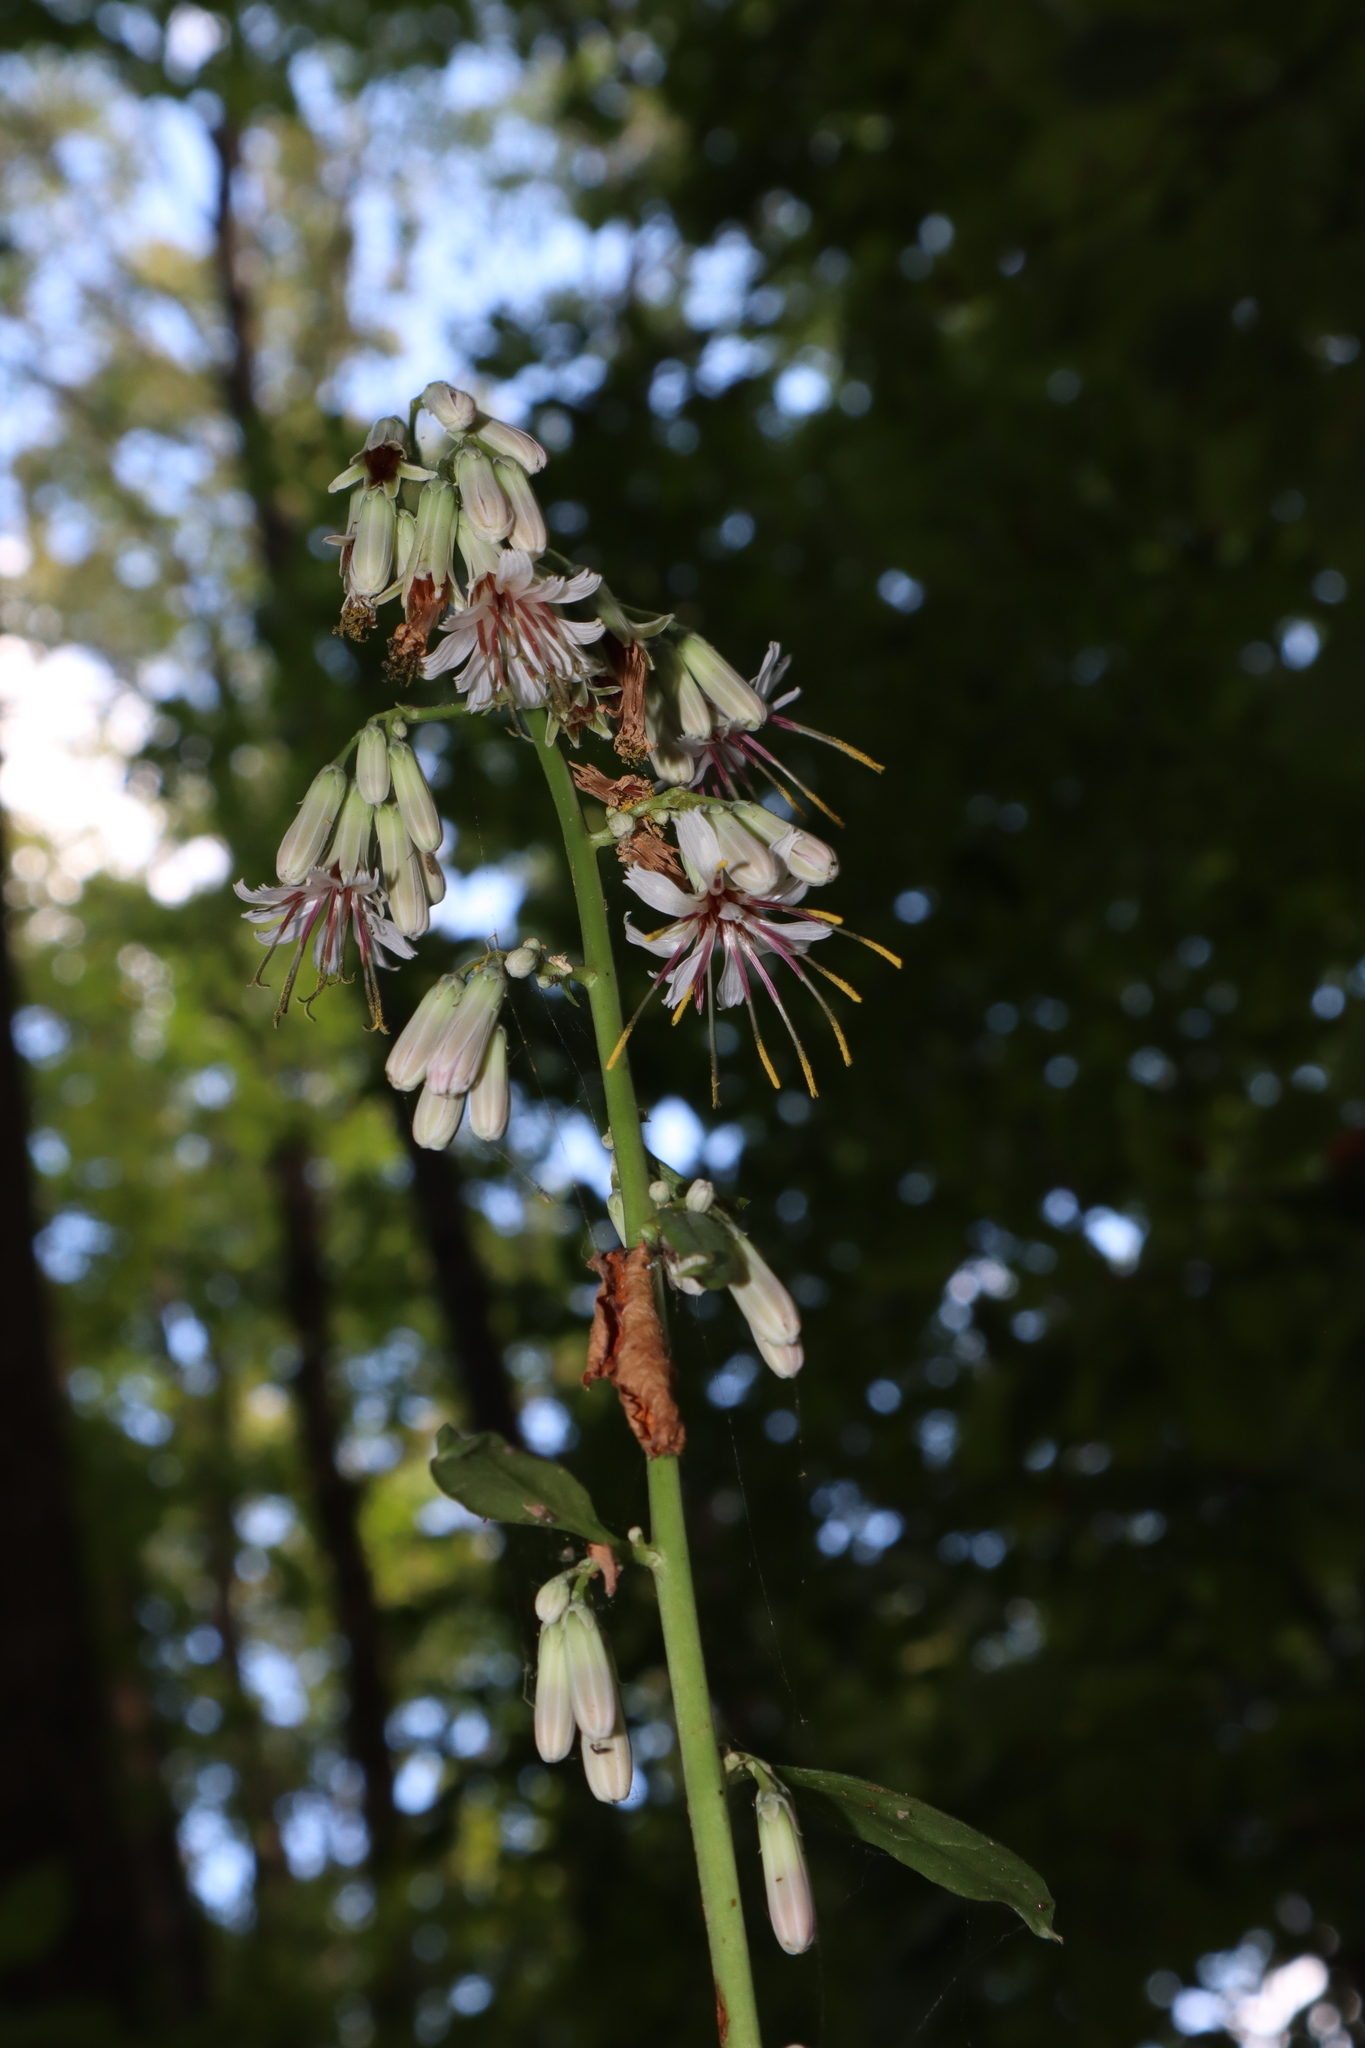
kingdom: Plantae
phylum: Tracheophyta
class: Magnoliopsida
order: Asterales
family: Asteraceae
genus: Nabalus
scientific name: Nabalus albus
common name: White rattlesnakeroot
